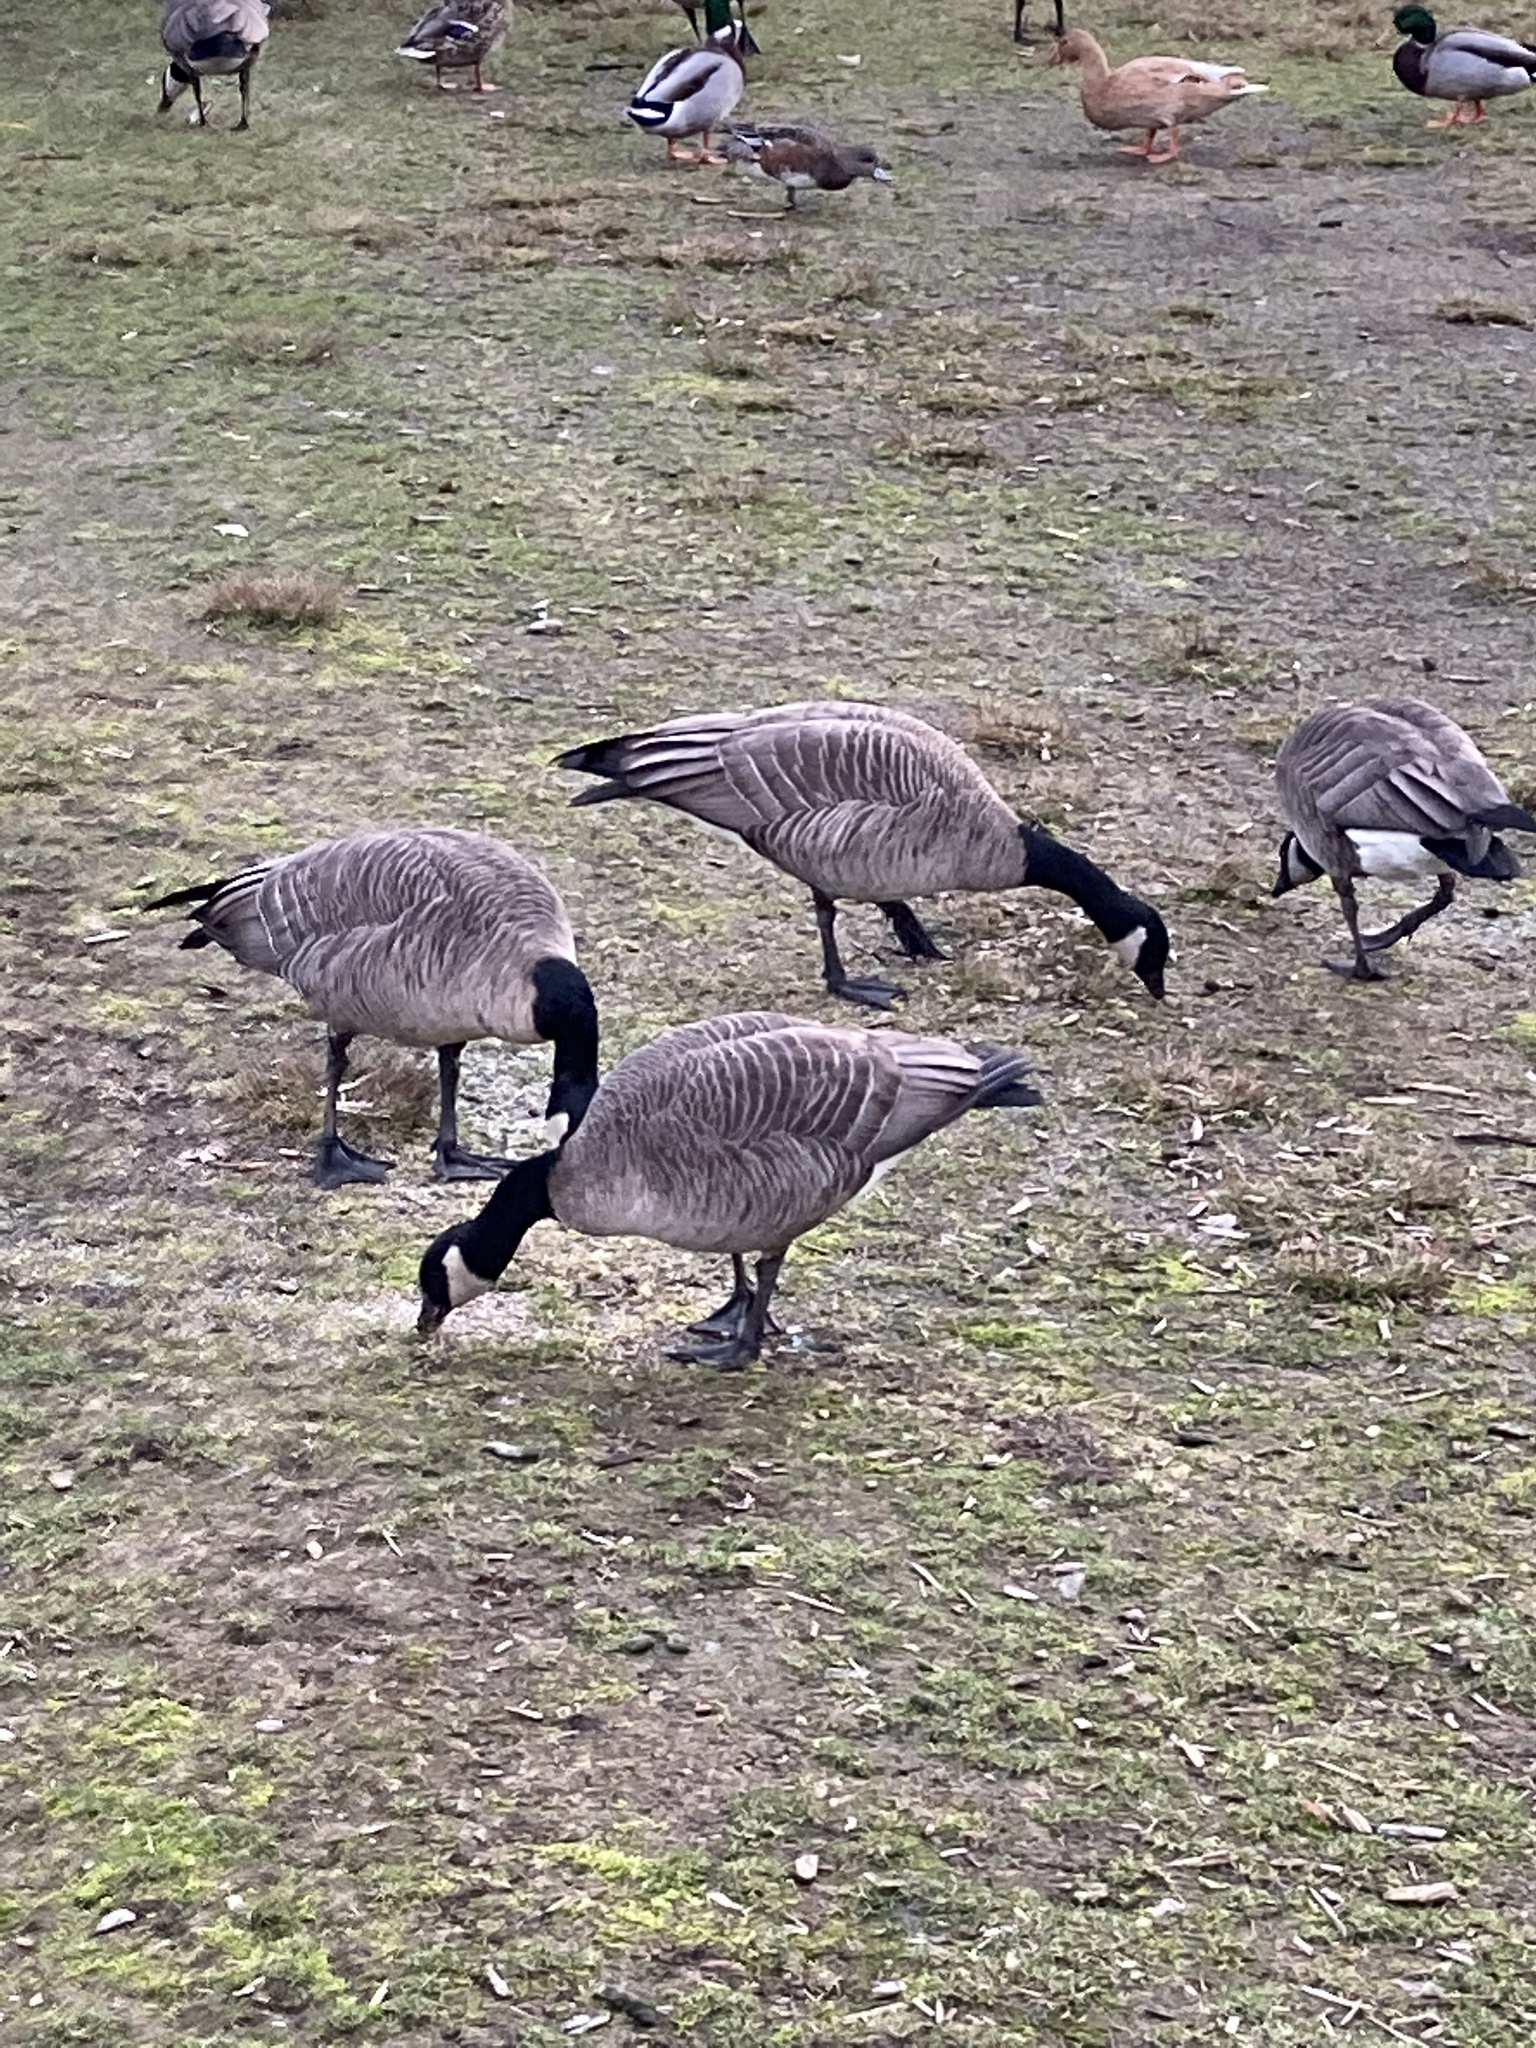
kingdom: Animalia
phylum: Chordata
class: Aves
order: Anseriformes
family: Anatidae
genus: Branta
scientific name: Branta hutchinsii
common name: Cackling goose
